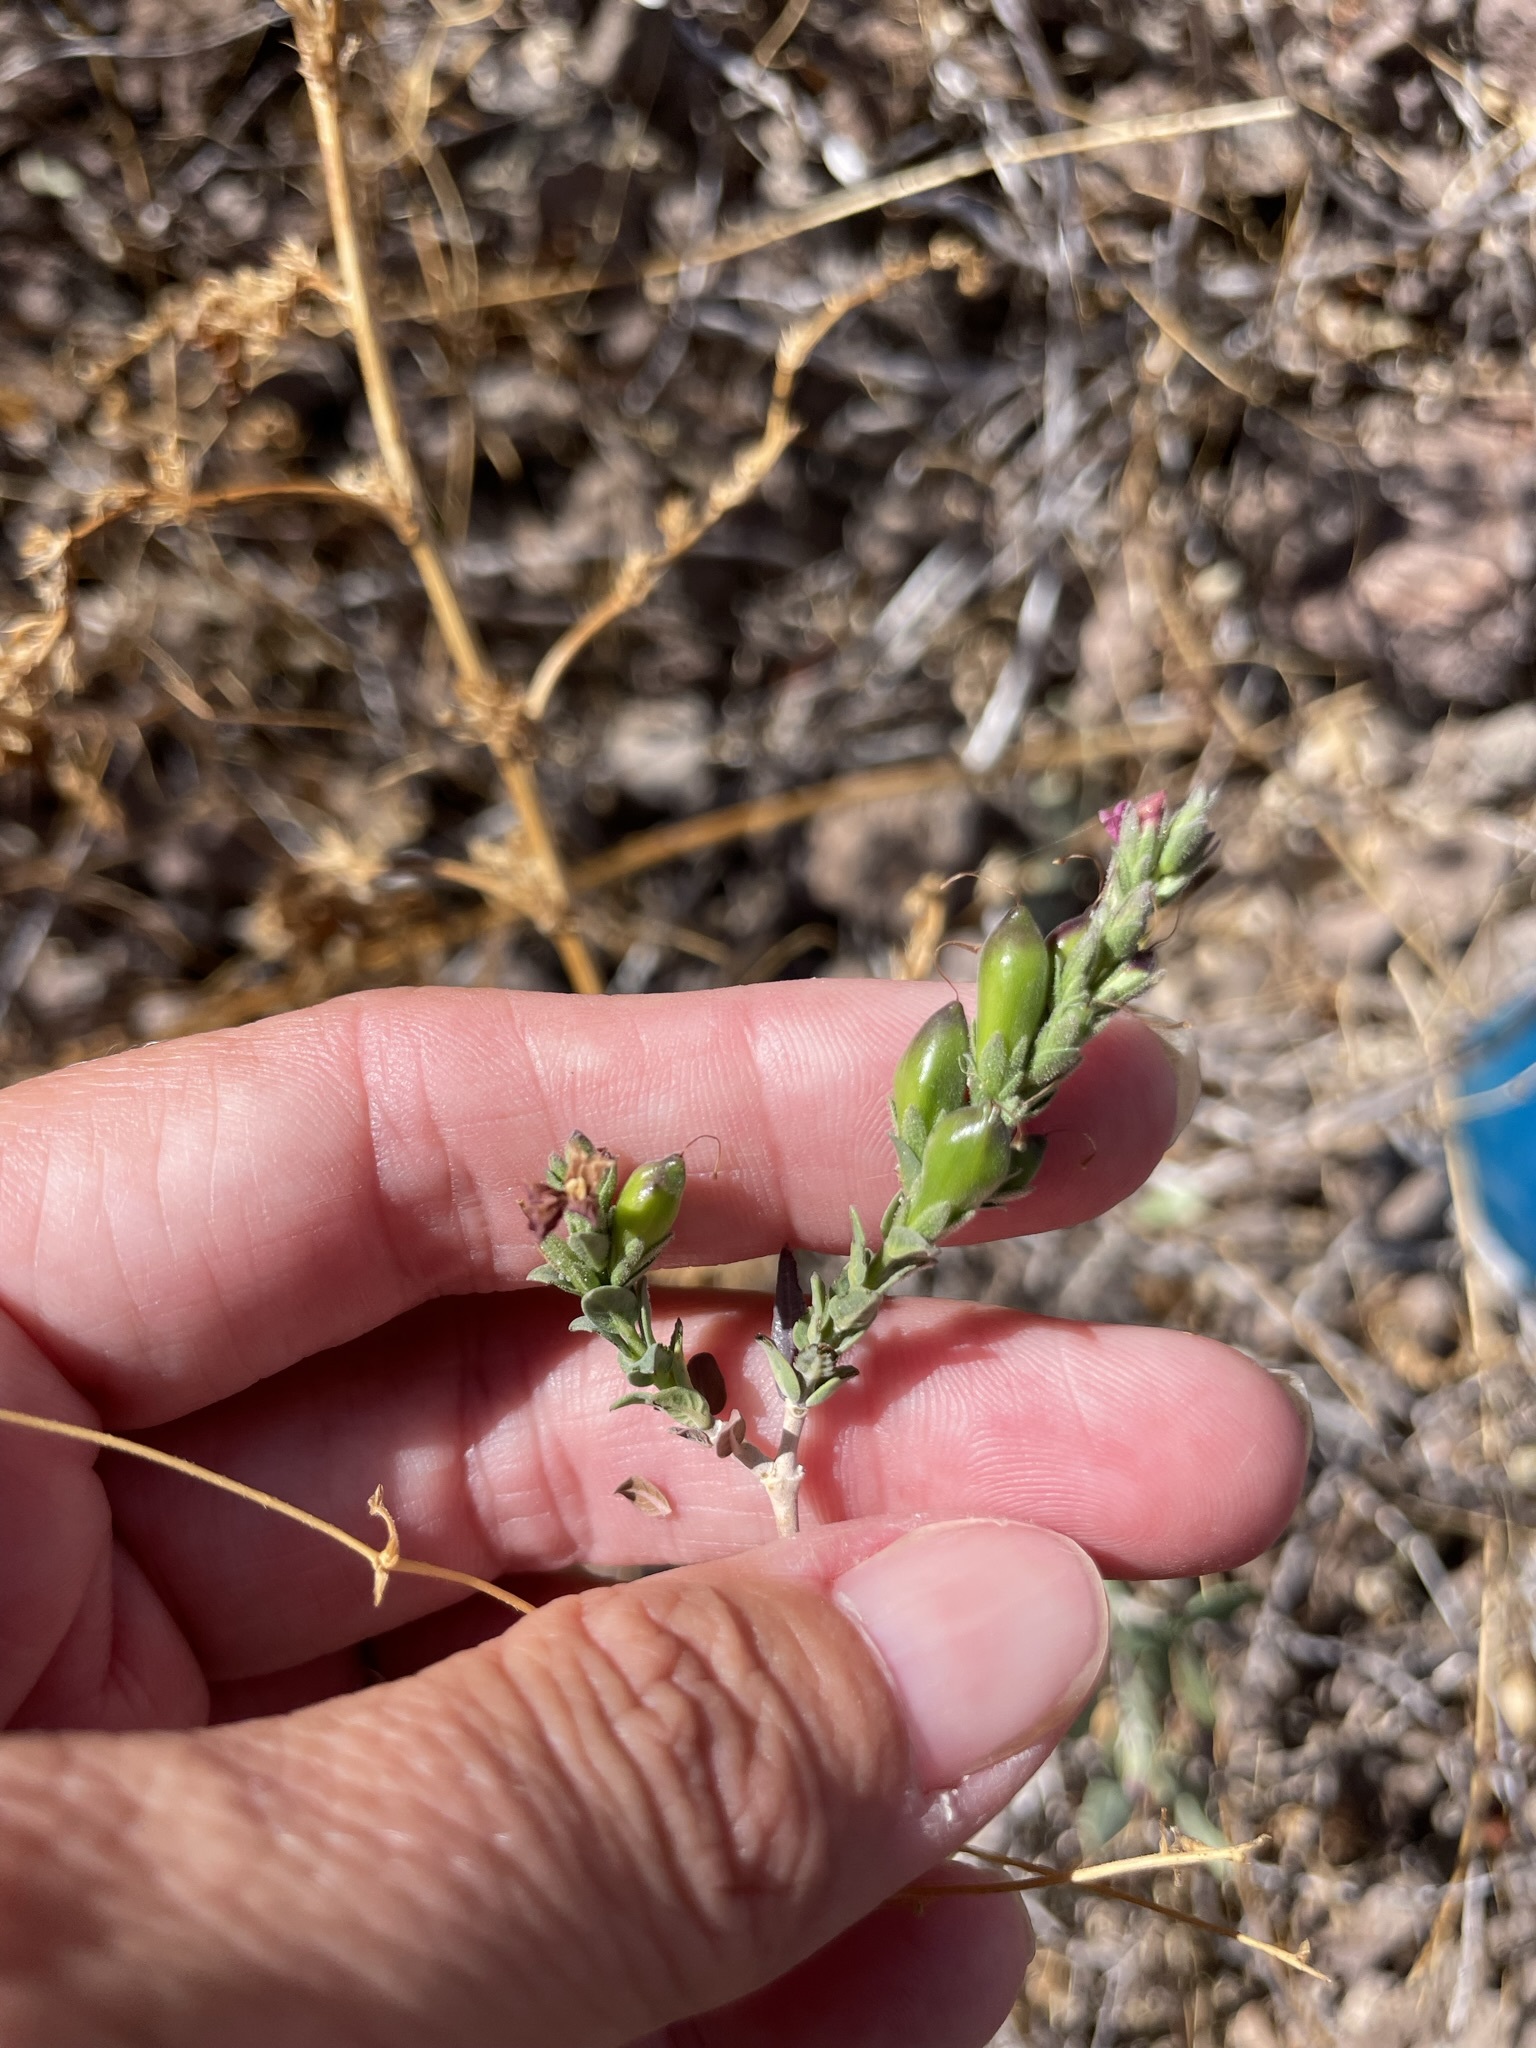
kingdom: Plantae
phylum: Tracheophyta
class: Magnoliopsida
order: Lamiales
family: Acanthaceae
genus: Holographis
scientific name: Holographis virgata
